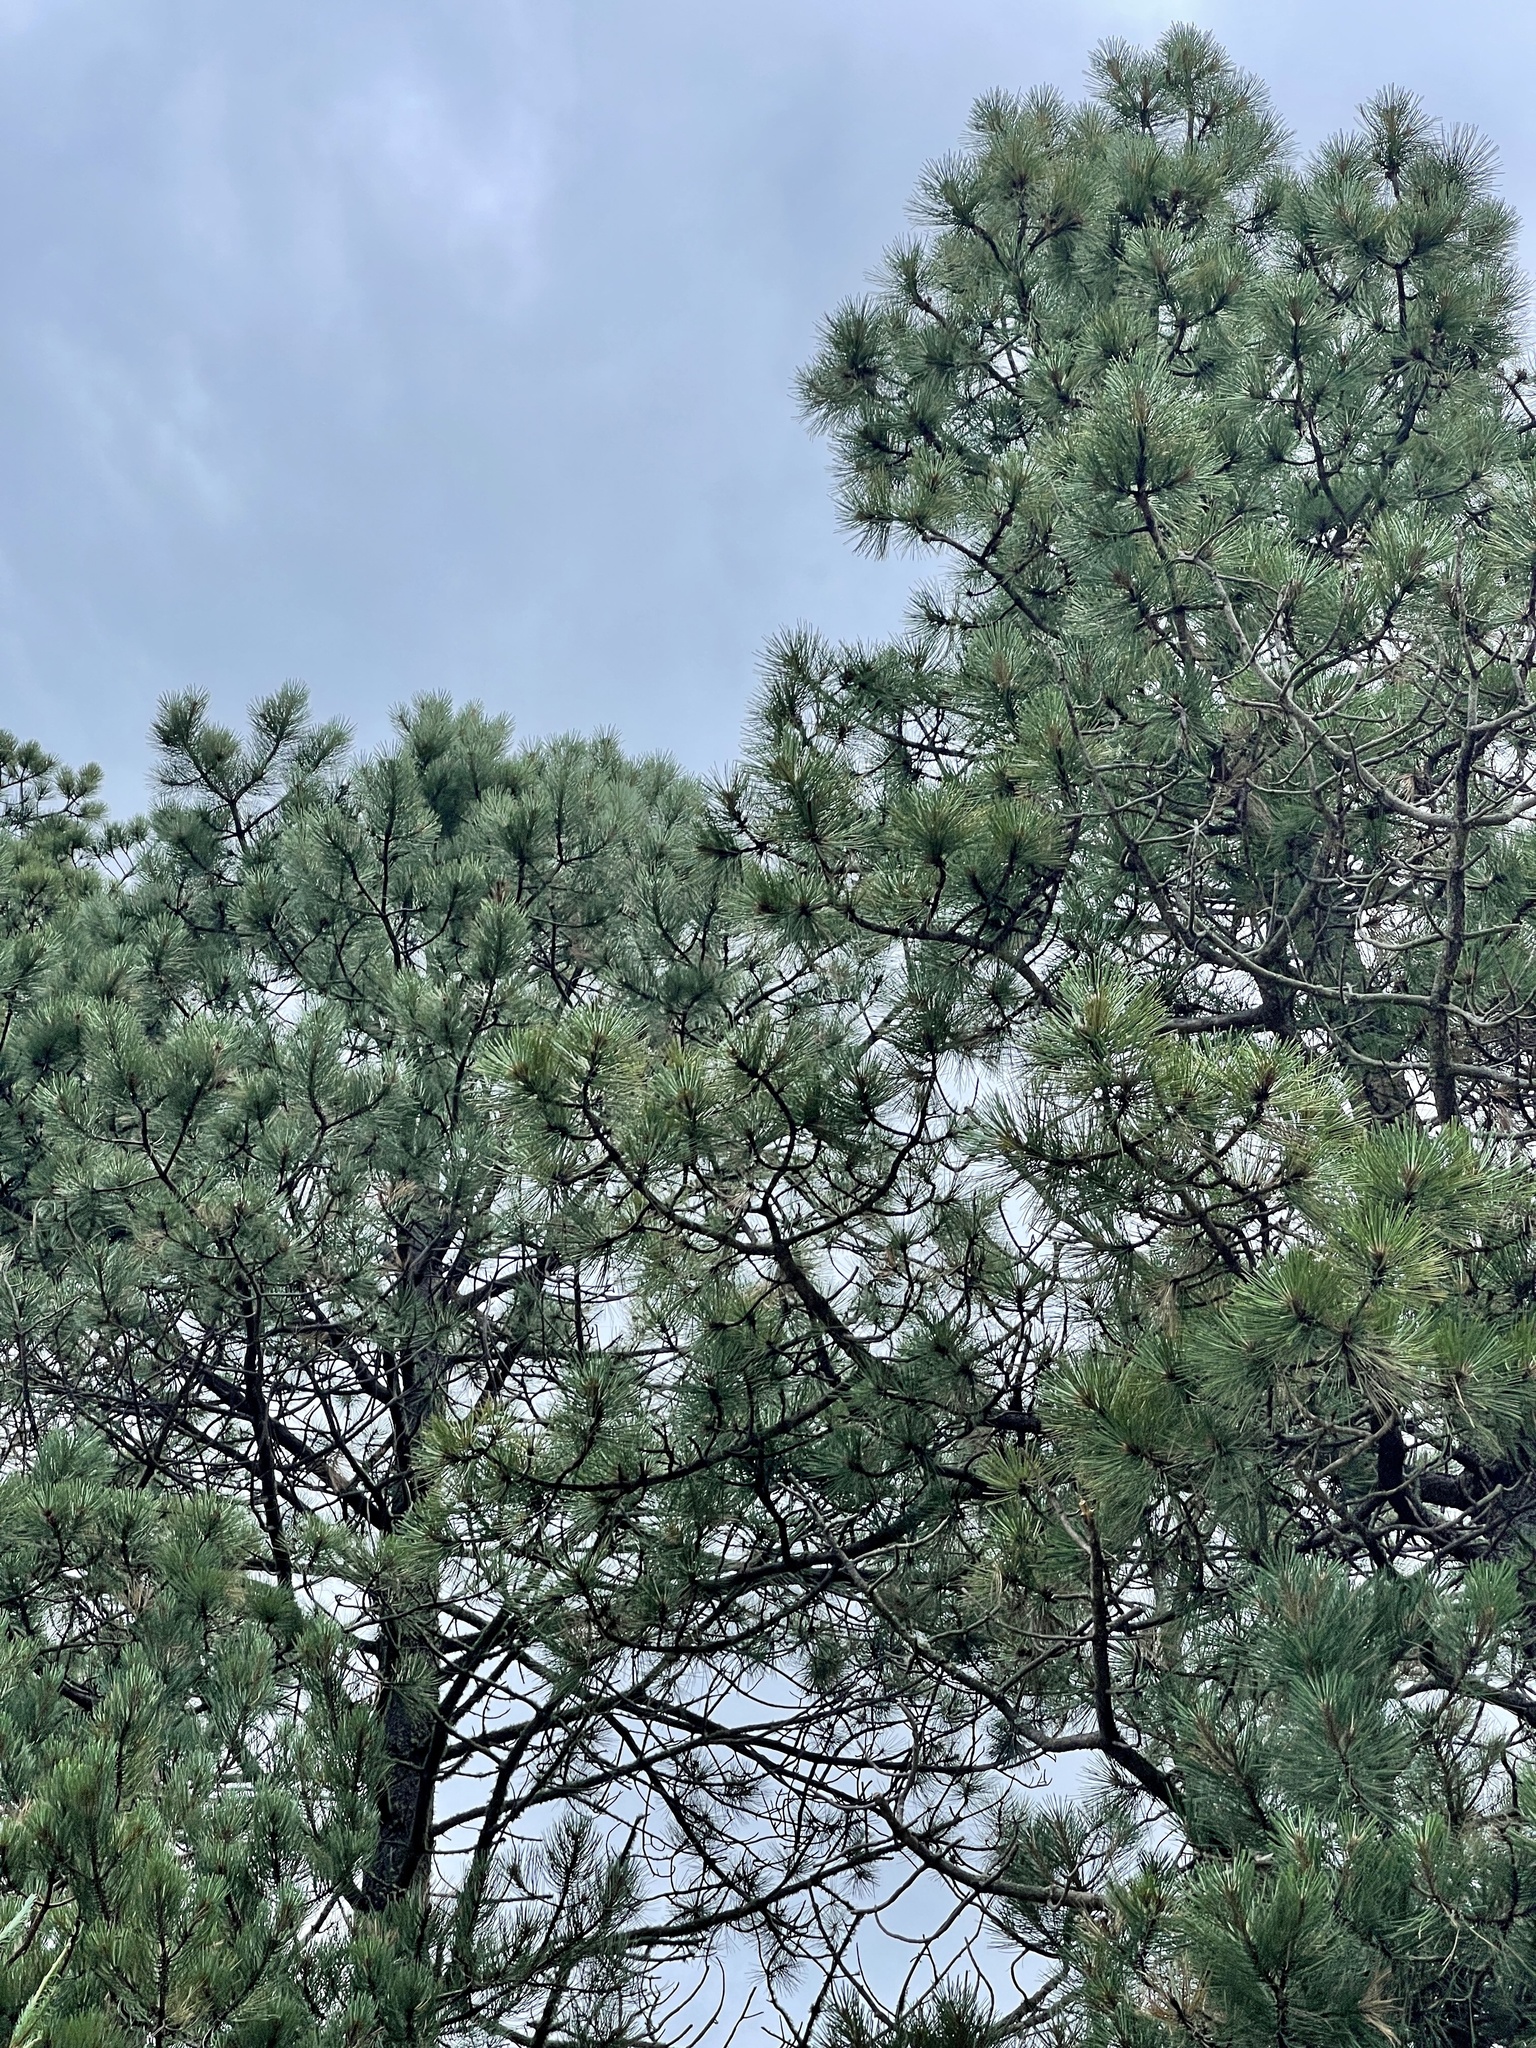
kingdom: Plantae
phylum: Tracheophyta
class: Pinopsida
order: Pinales
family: Pinaceae
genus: Pinus
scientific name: Pinus ponderosa
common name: Western yellow-pine
